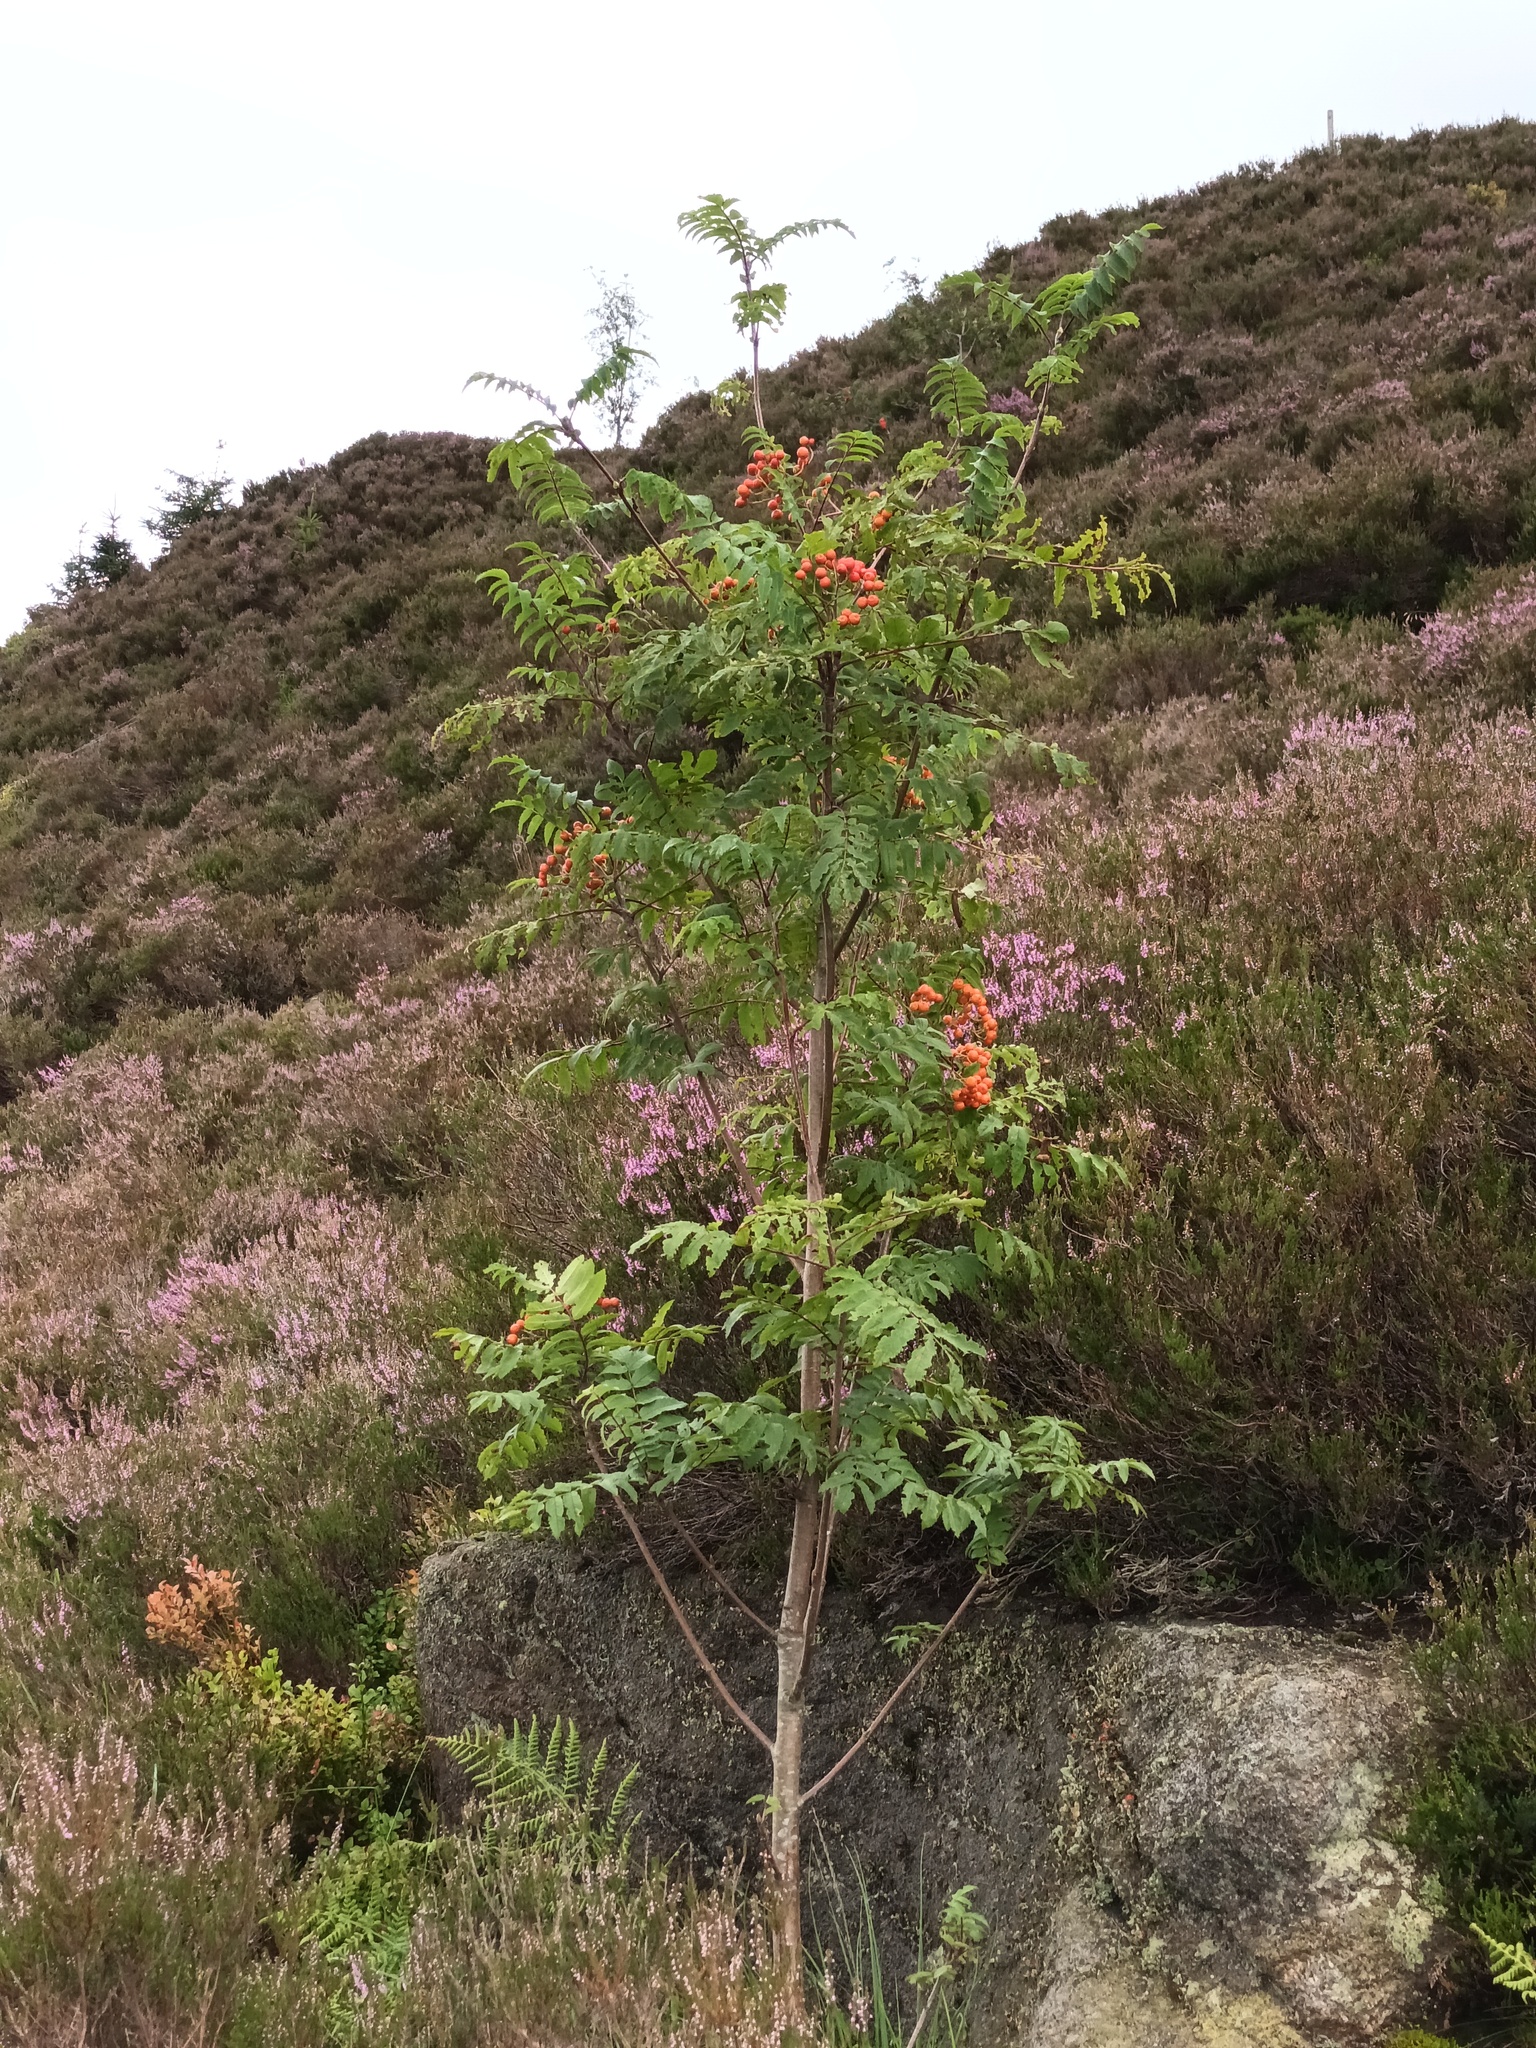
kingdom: Plantae
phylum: Tracheophyta
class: Magnoliopsida
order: Rosales
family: Rosaceae
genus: Sorbus
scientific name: Sorbus aucuparia
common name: Rowan
